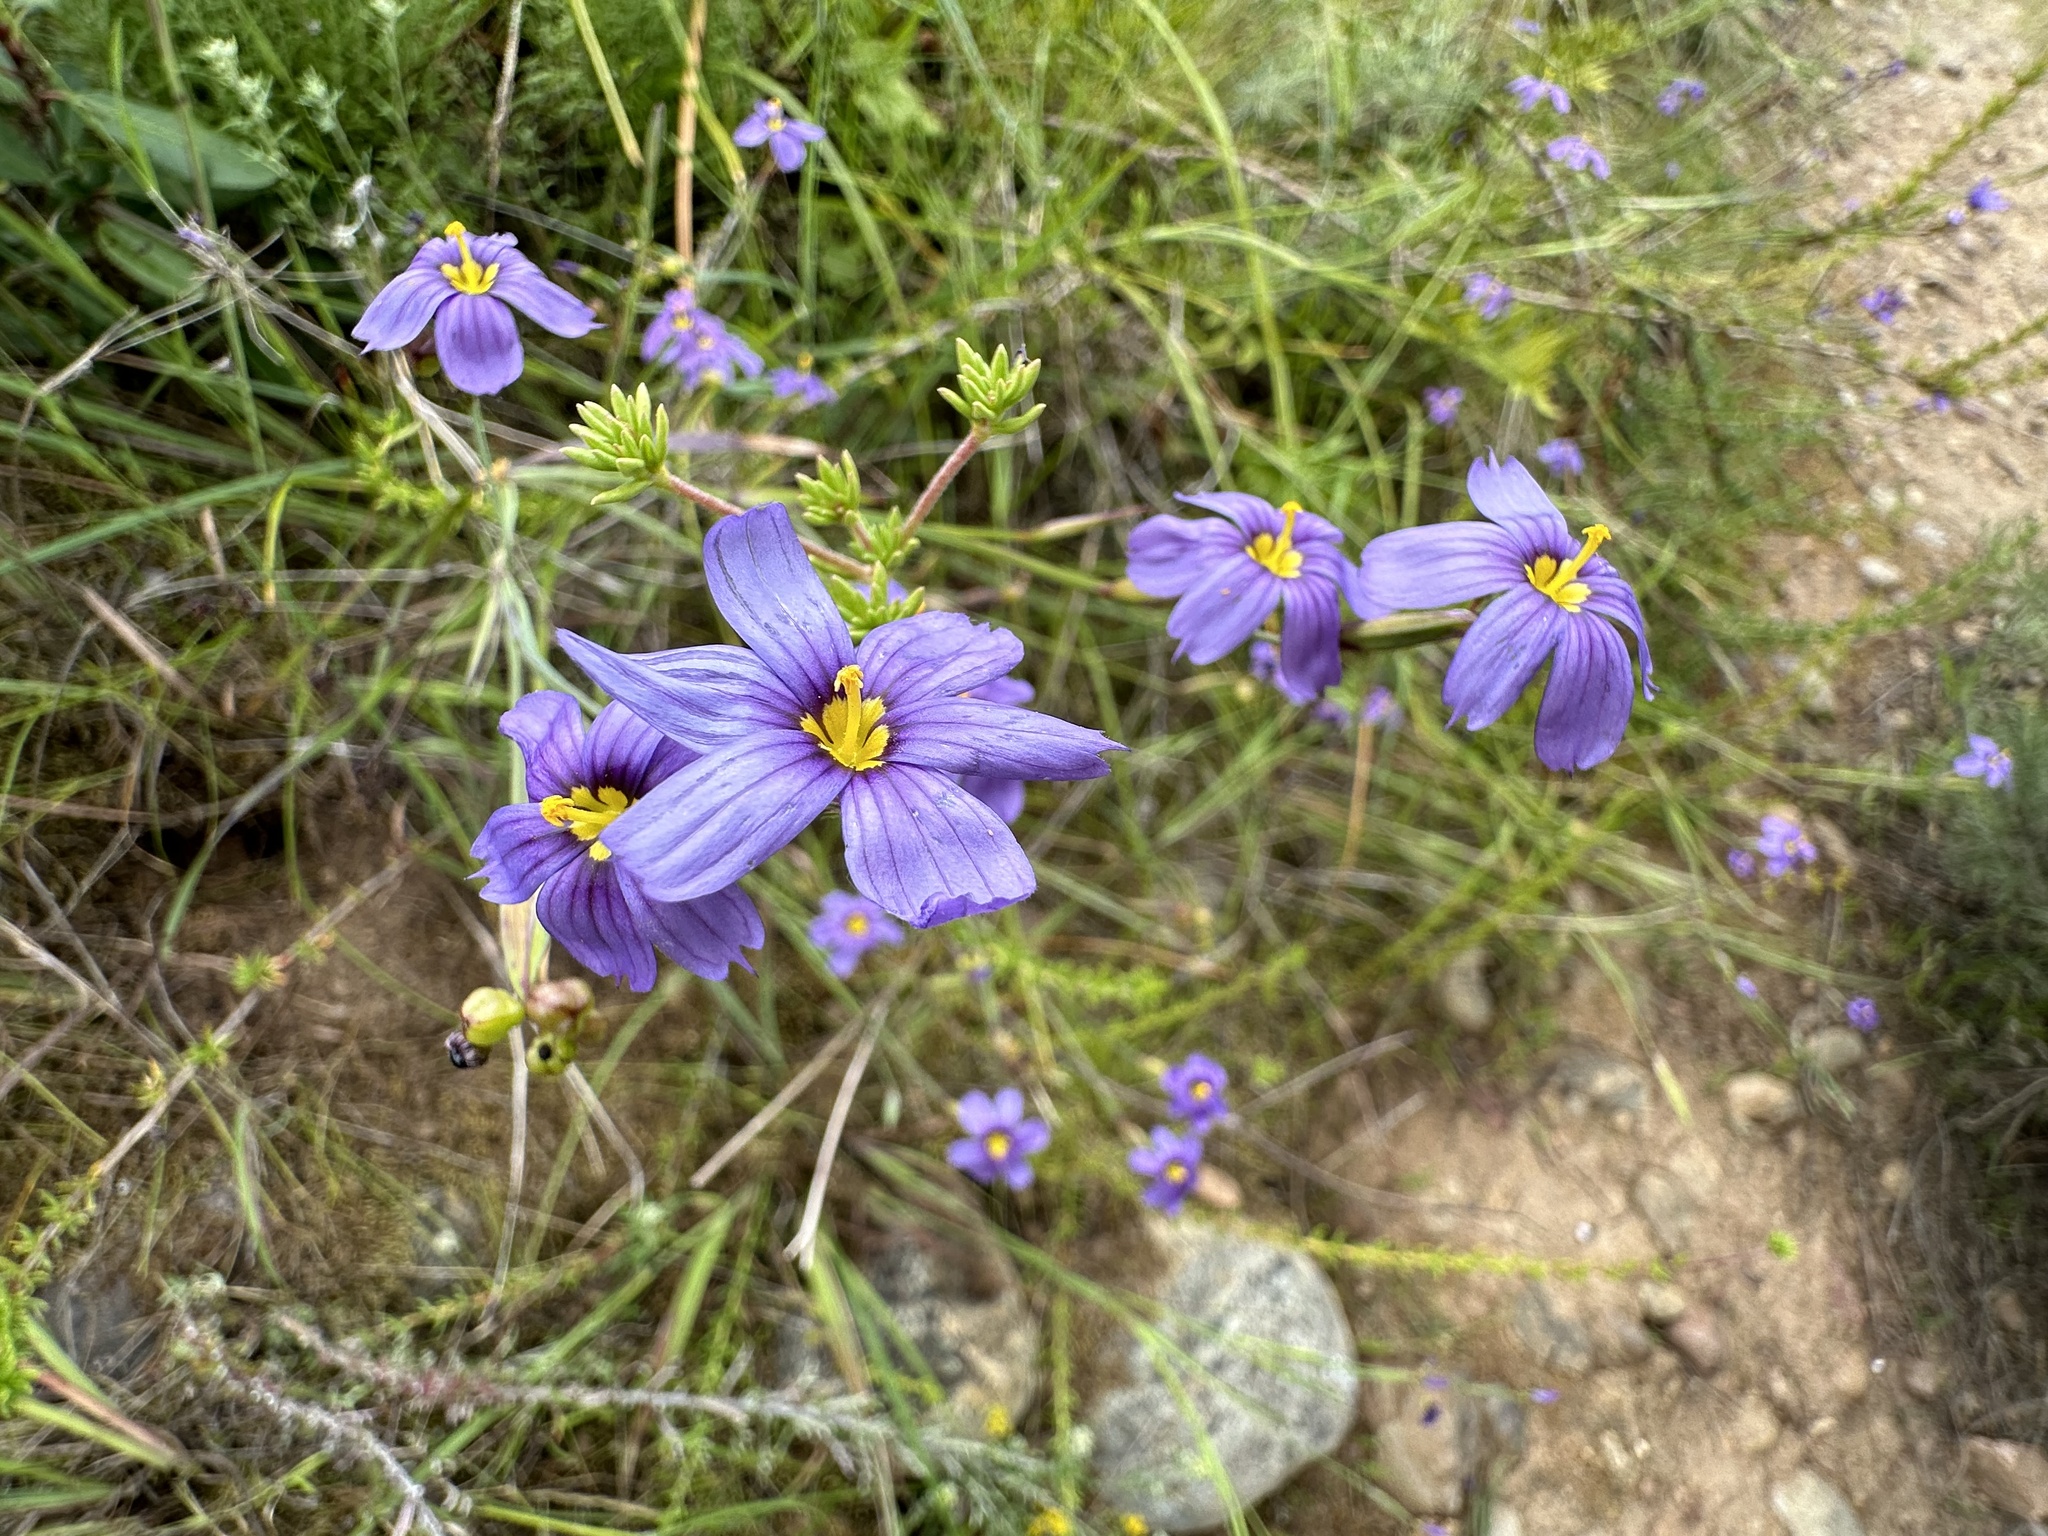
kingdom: Plantae
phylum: Tracheophyta
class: Liliopsida
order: Asparagales
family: Iridaceae
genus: Sisyrinchium
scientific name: Sisyrinchium bellum
